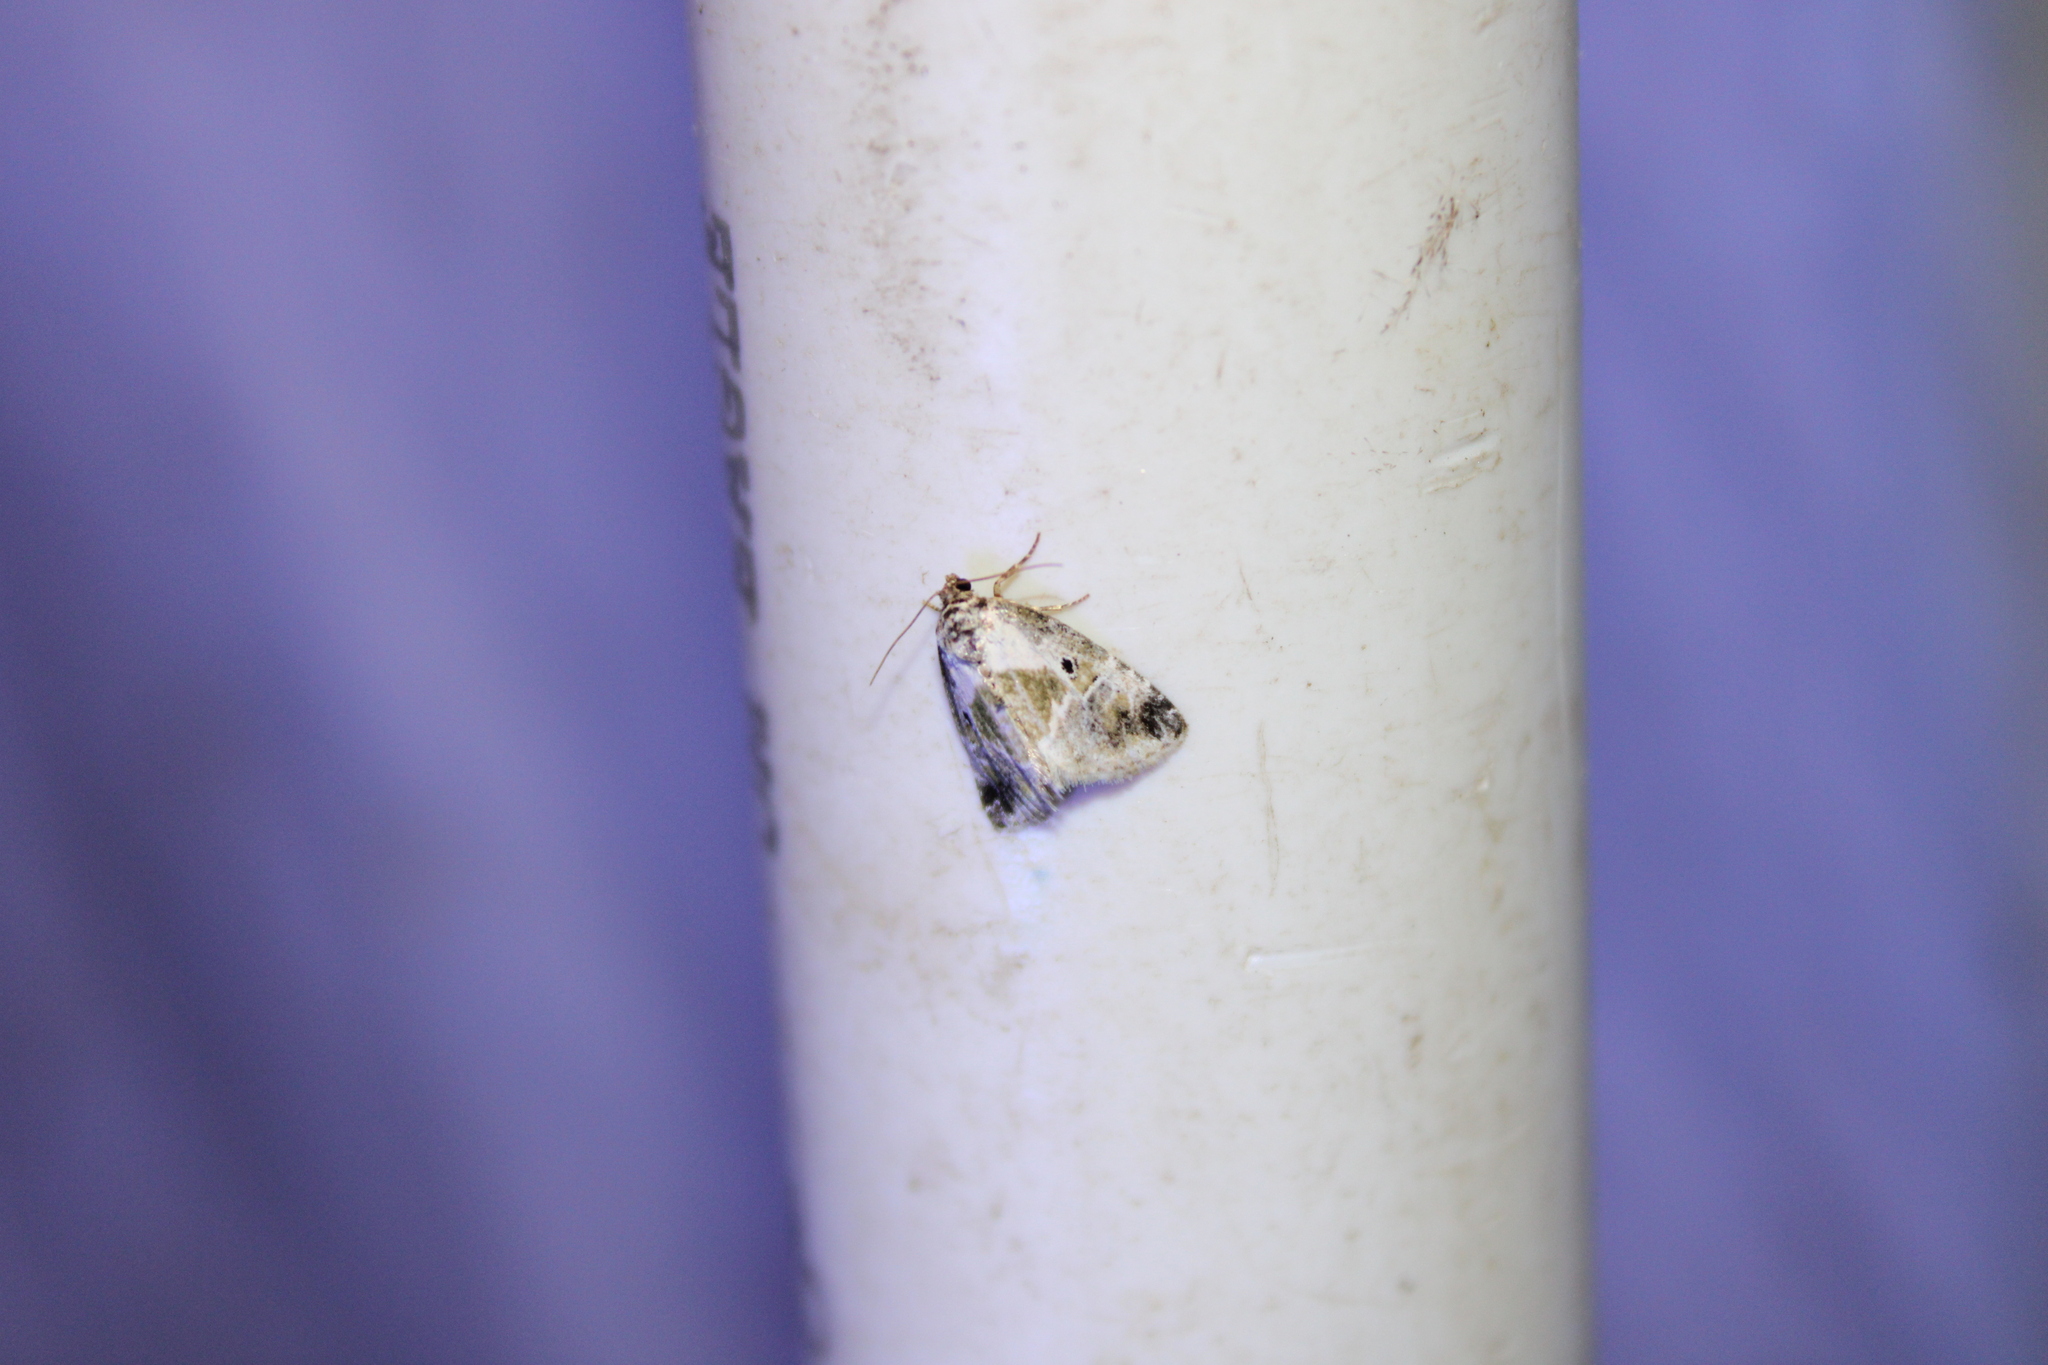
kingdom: Animalia
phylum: Arthropoda
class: Insecta
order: Lepidoptera
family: Noctuidae
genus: Maliattha
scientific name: Maliattha synochitis
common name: Black-dotted glyph
